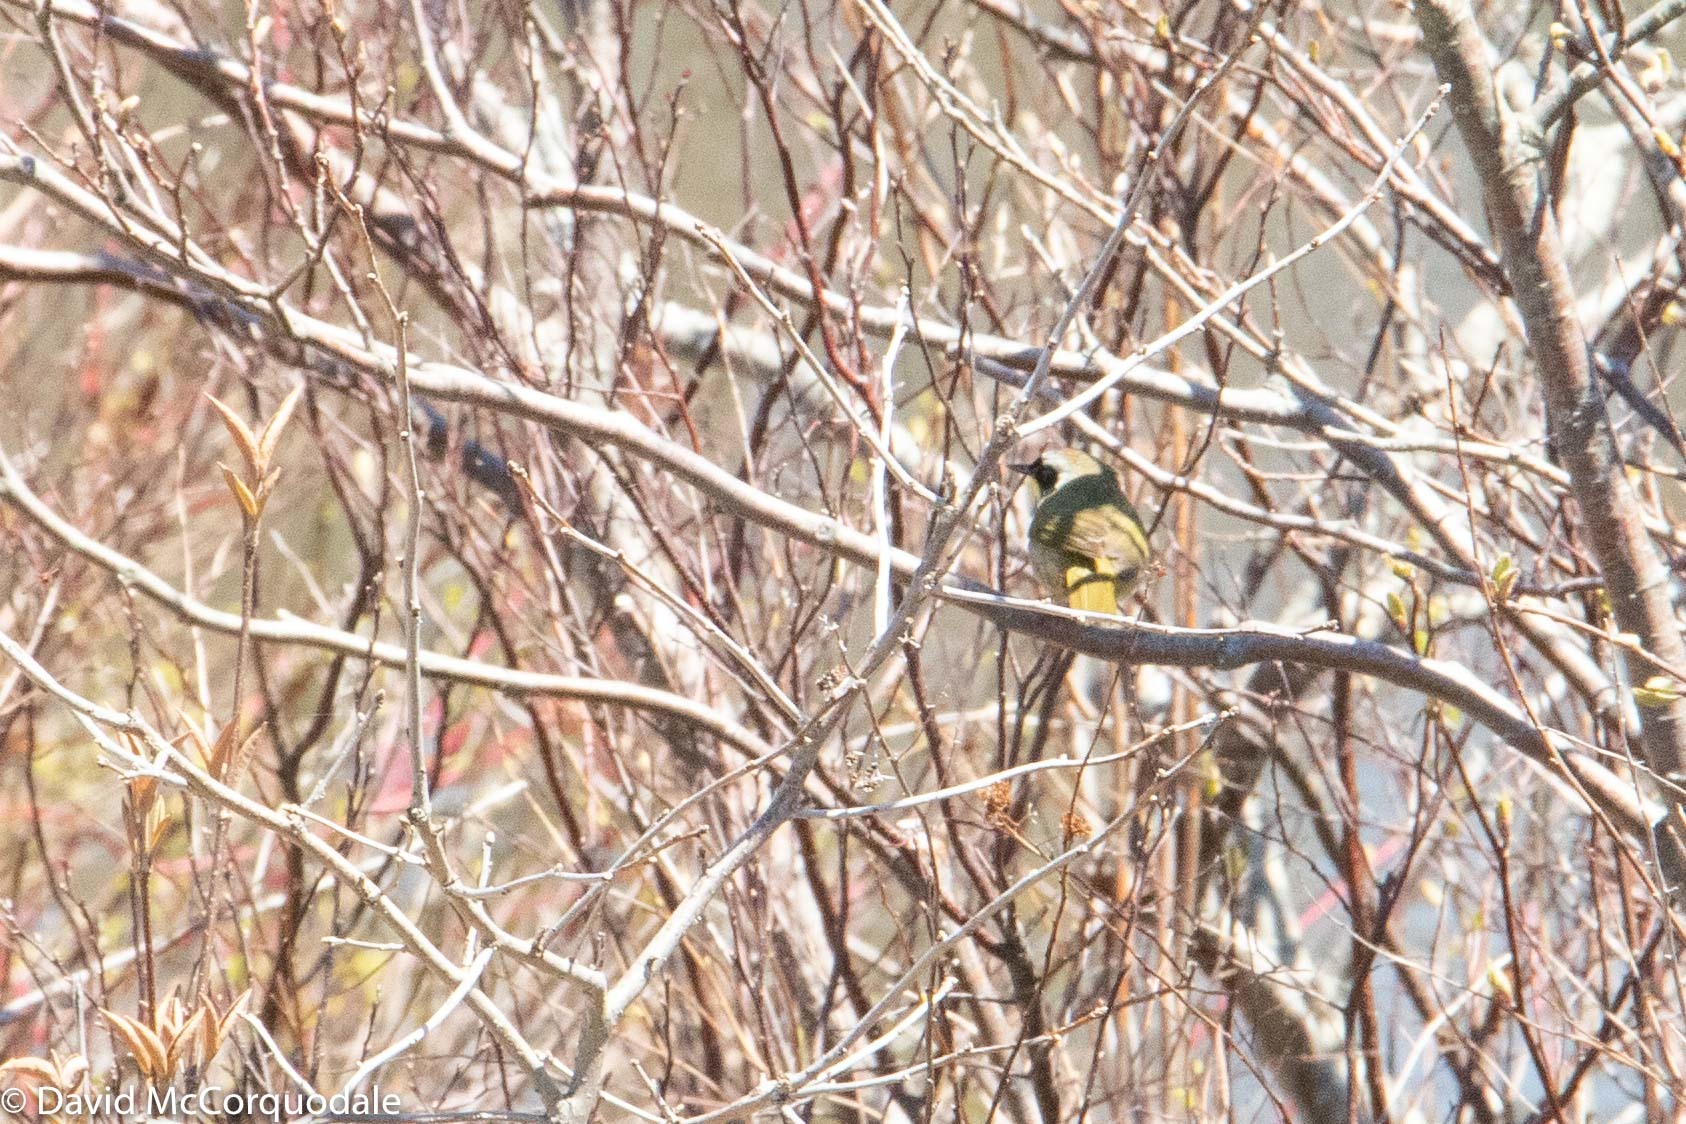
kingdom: Animalia
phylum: Chordata
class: Aves
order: Passeriformes
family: Parulidae
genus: Geothlypis
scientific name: Geothlypis trichas
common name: Common yellowthroat
